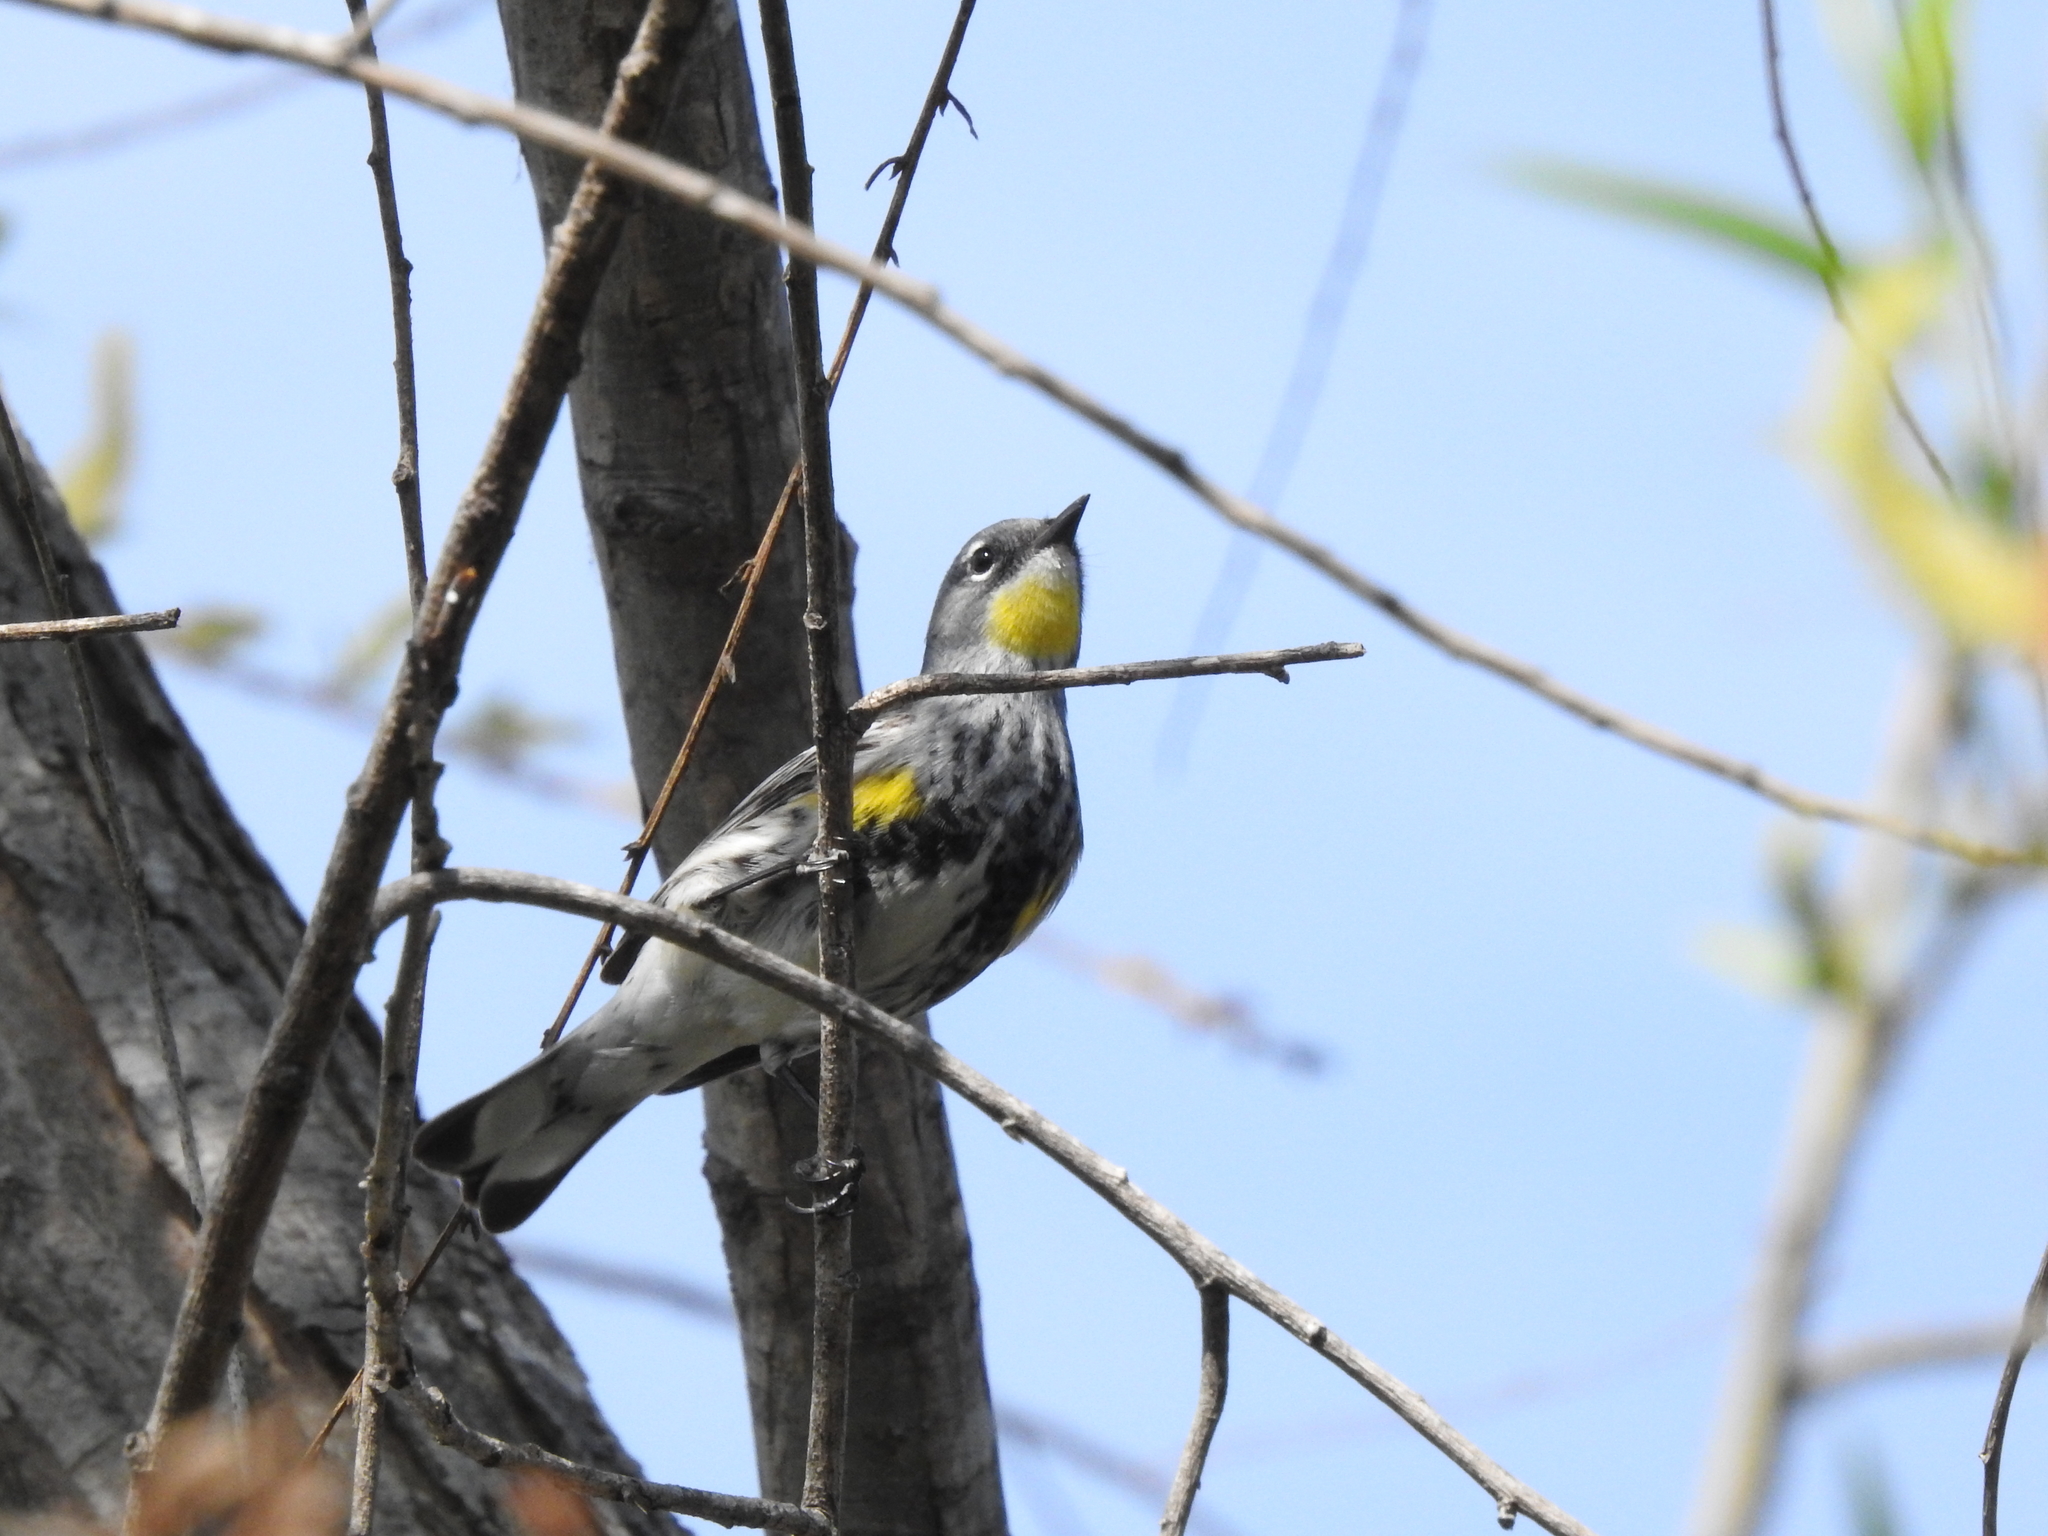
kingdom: Animalia
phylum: Chordata
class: Aves
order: Passeriformes
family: Parulidae
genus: Setophaga
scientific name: Setophaga coronata
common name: Myrtle warbler
